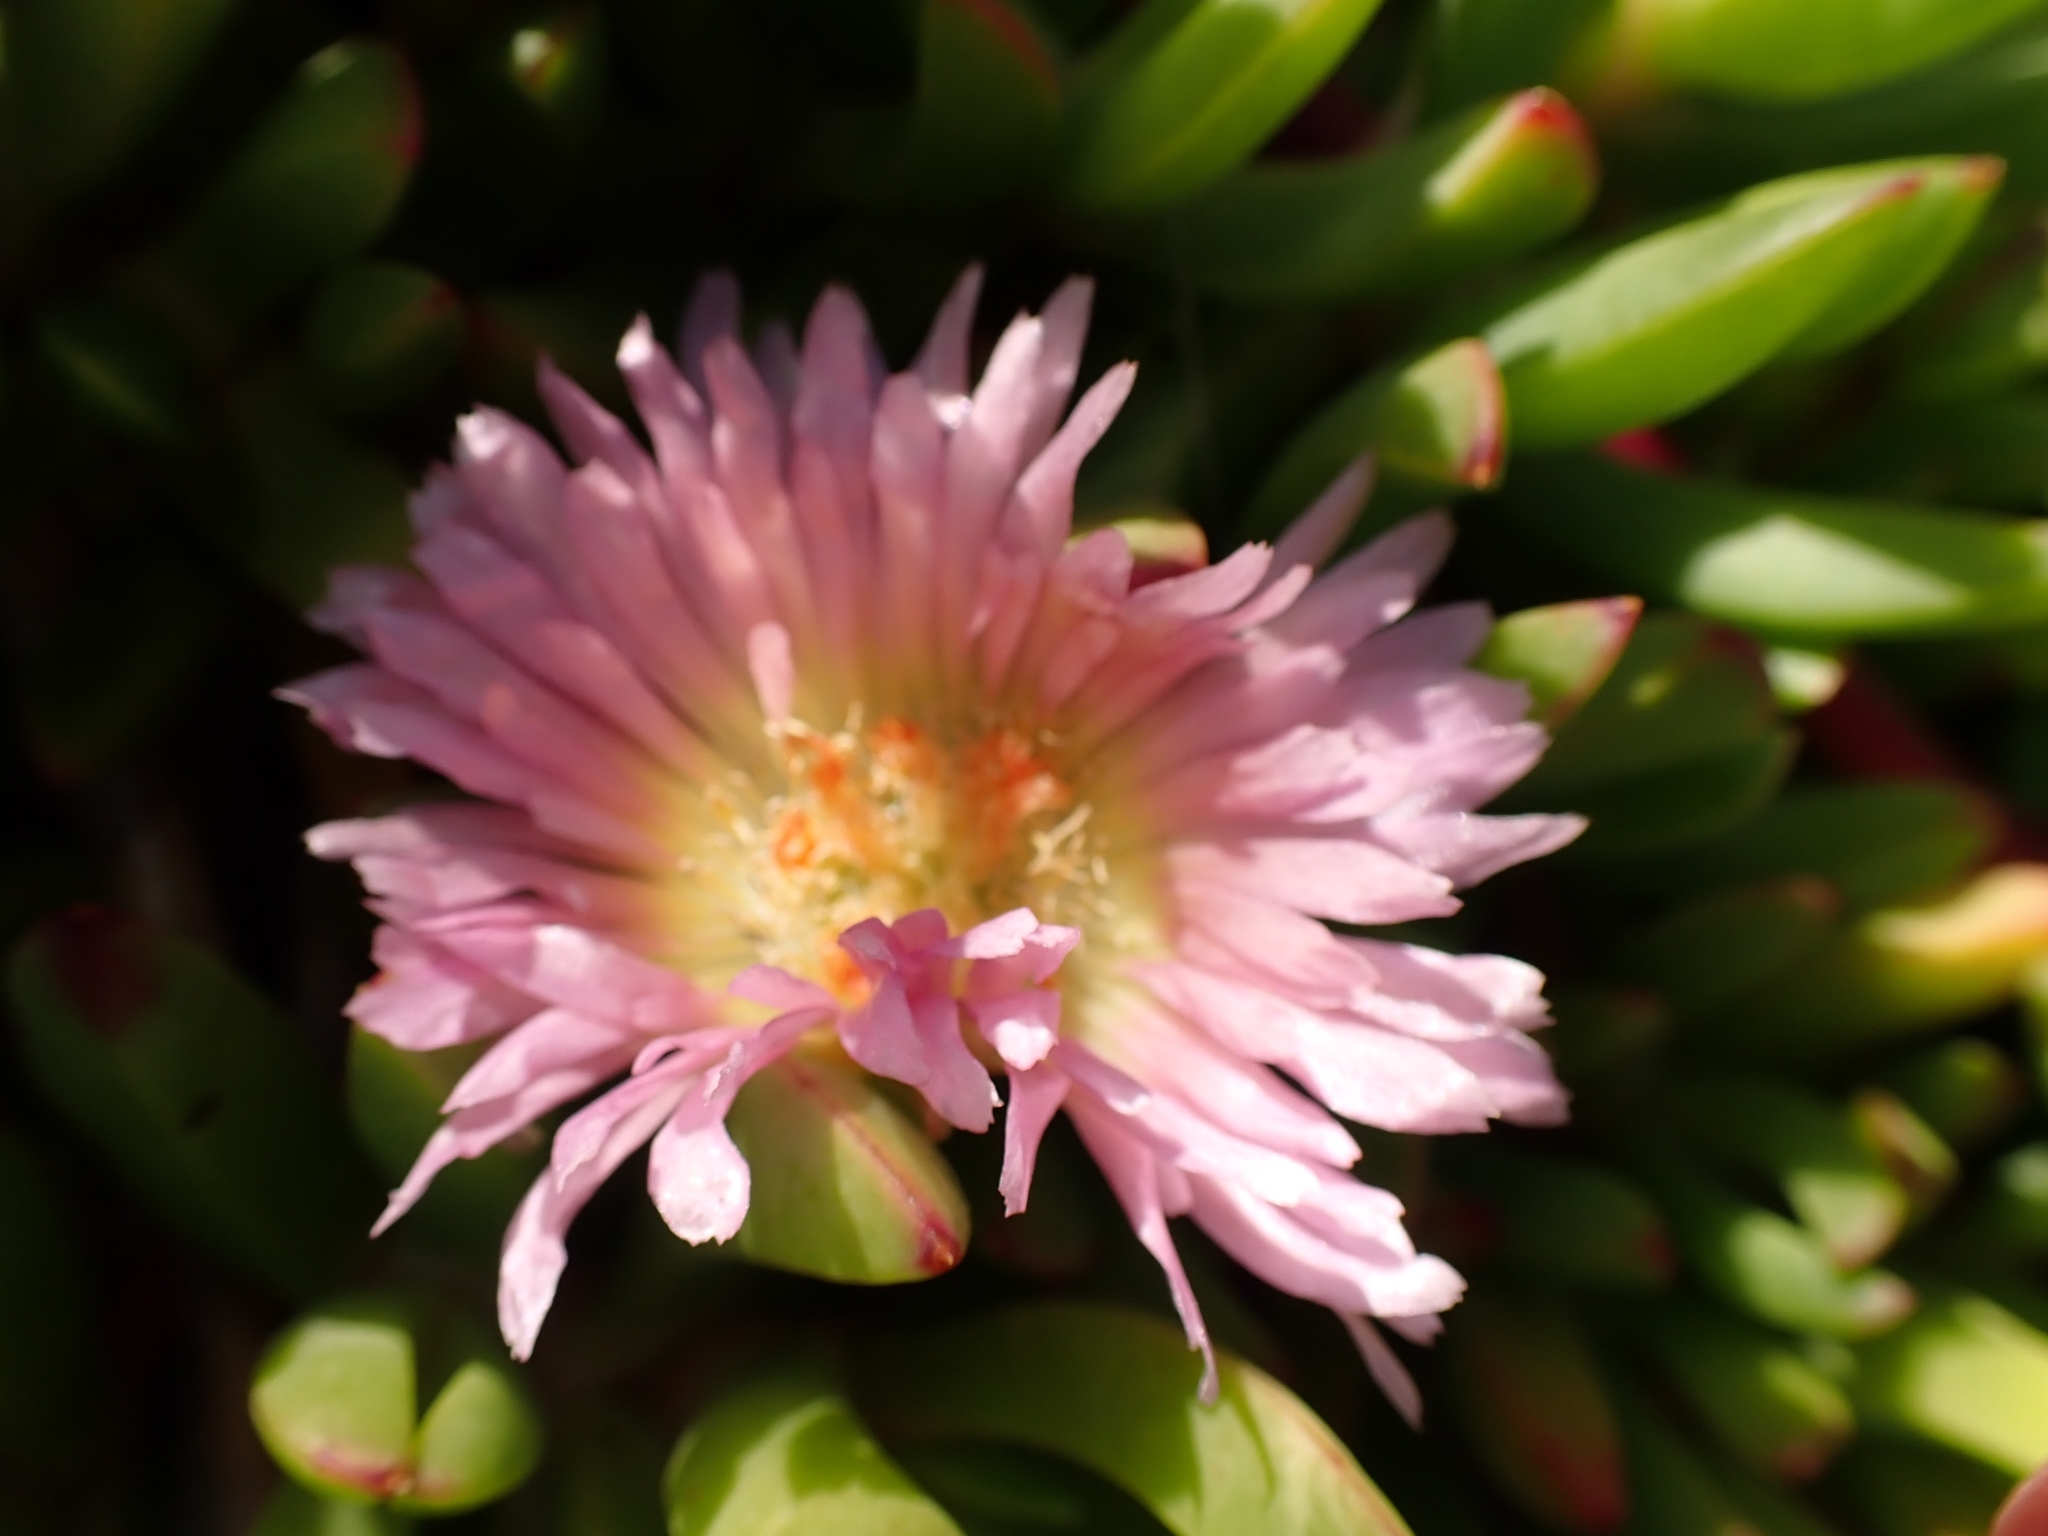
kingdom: Plantae
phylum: Tracheophyta
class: Magnoliopsida
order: Caryophyllales
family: Aizoaceae
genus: Disphyma
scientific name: Disphyma australe
